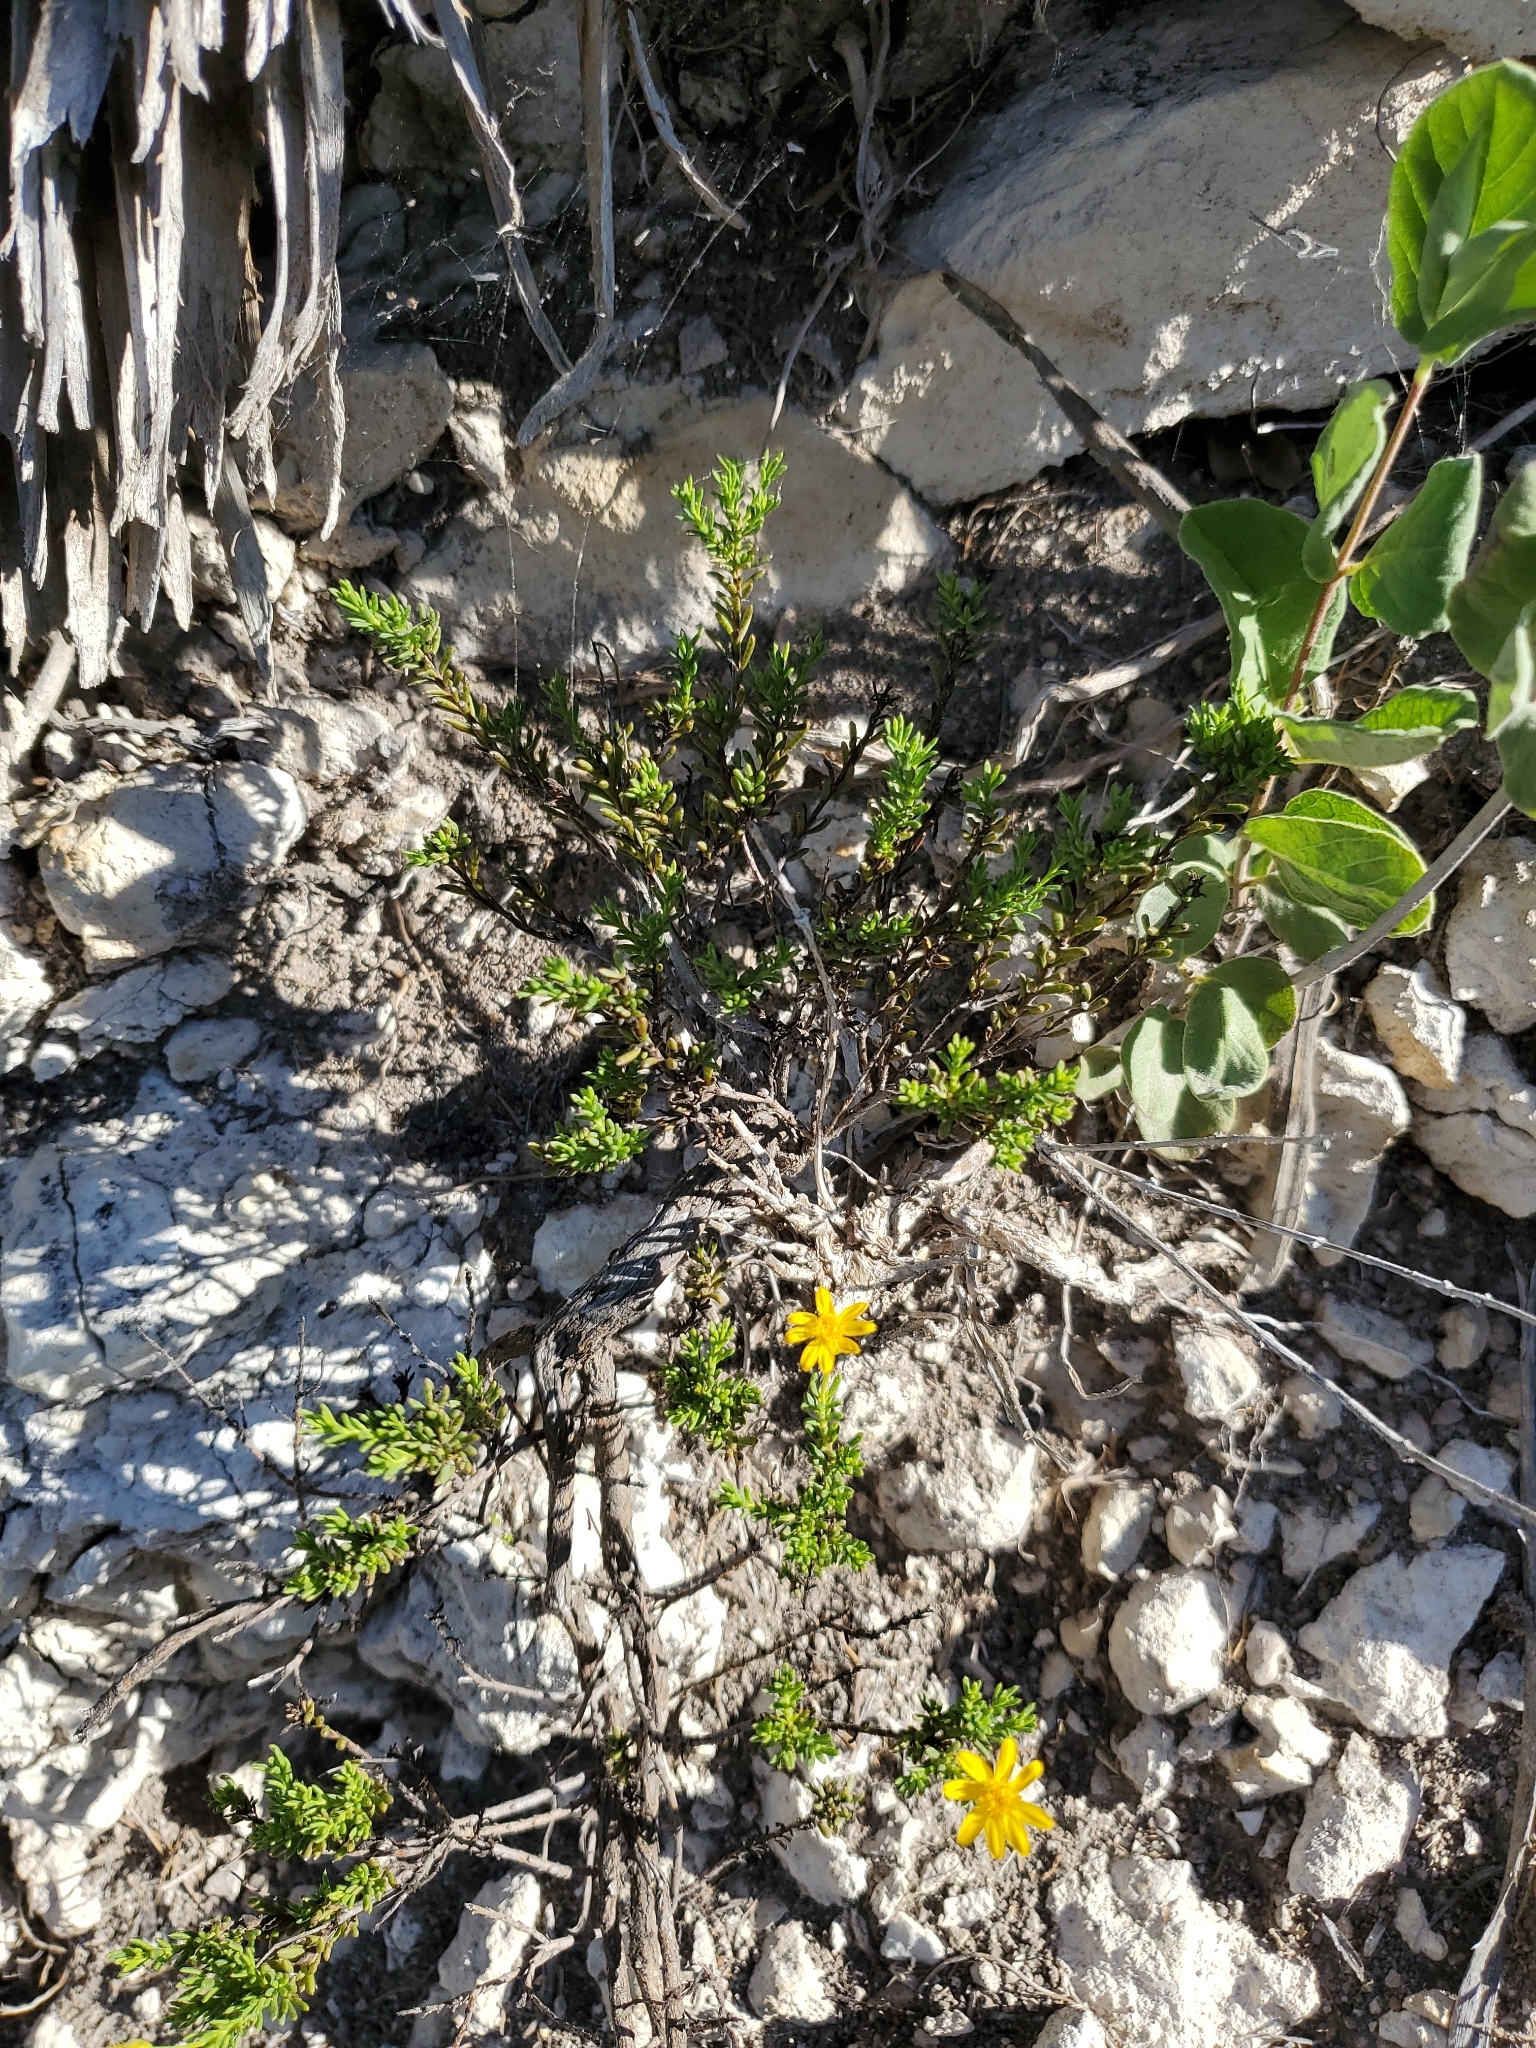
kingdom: Plantae
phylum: Tracheophyta
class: Magnoliopsida
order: Asterales
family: Asteraceae
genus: Chrysactinia
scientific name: Chrysactinia mexicana
